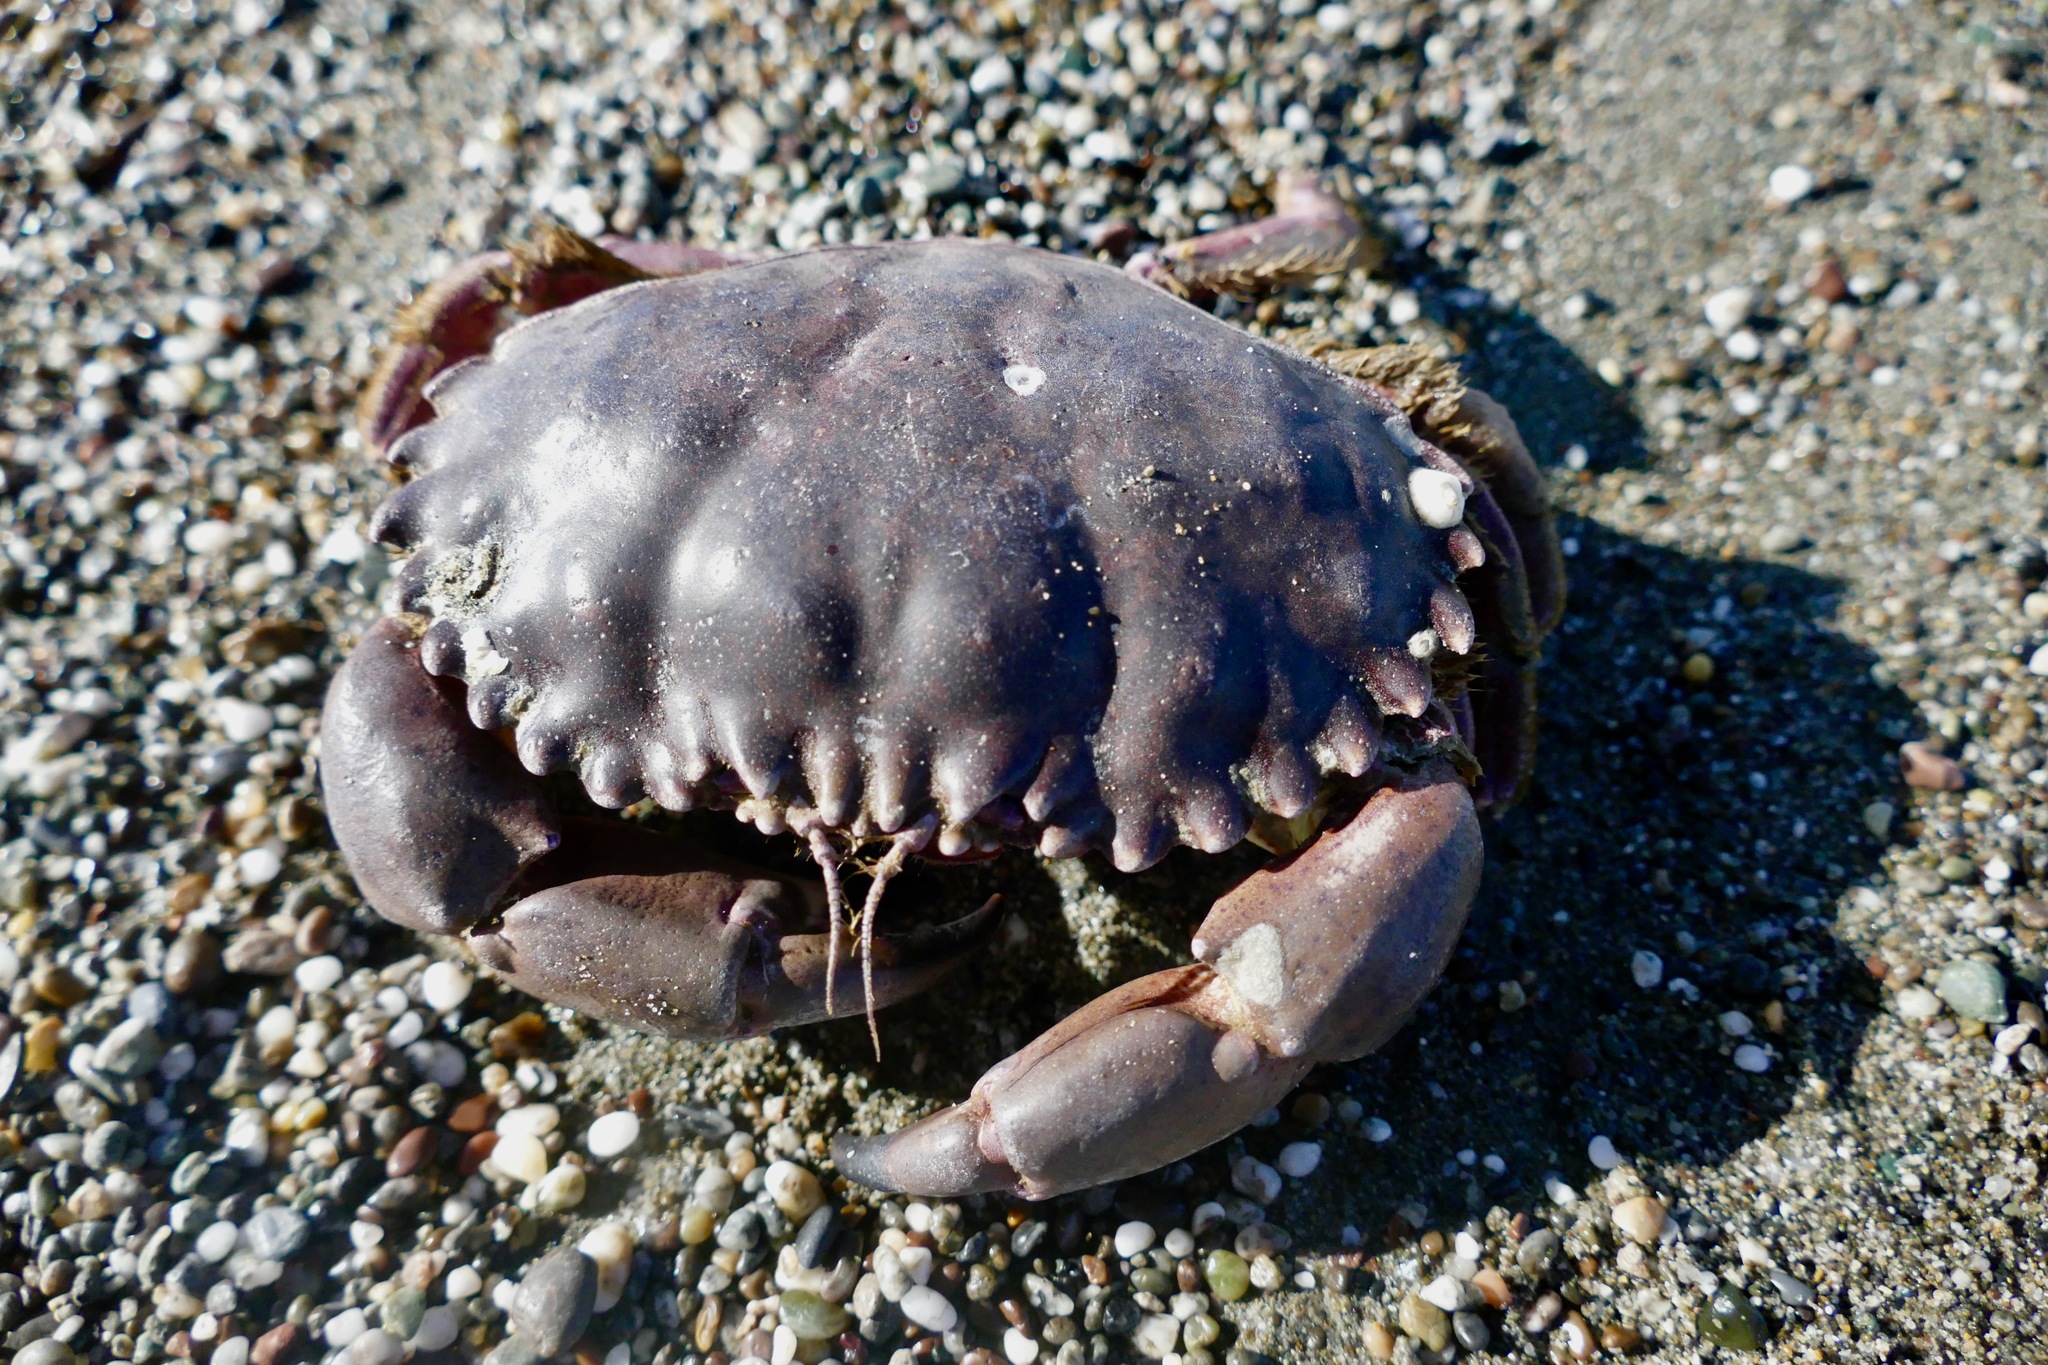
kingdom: Animalia
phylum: Arthropoda
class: Malacostraca
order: Decapoda
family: Cancridae
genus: Romaleon
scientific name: Romaleon antennarium
